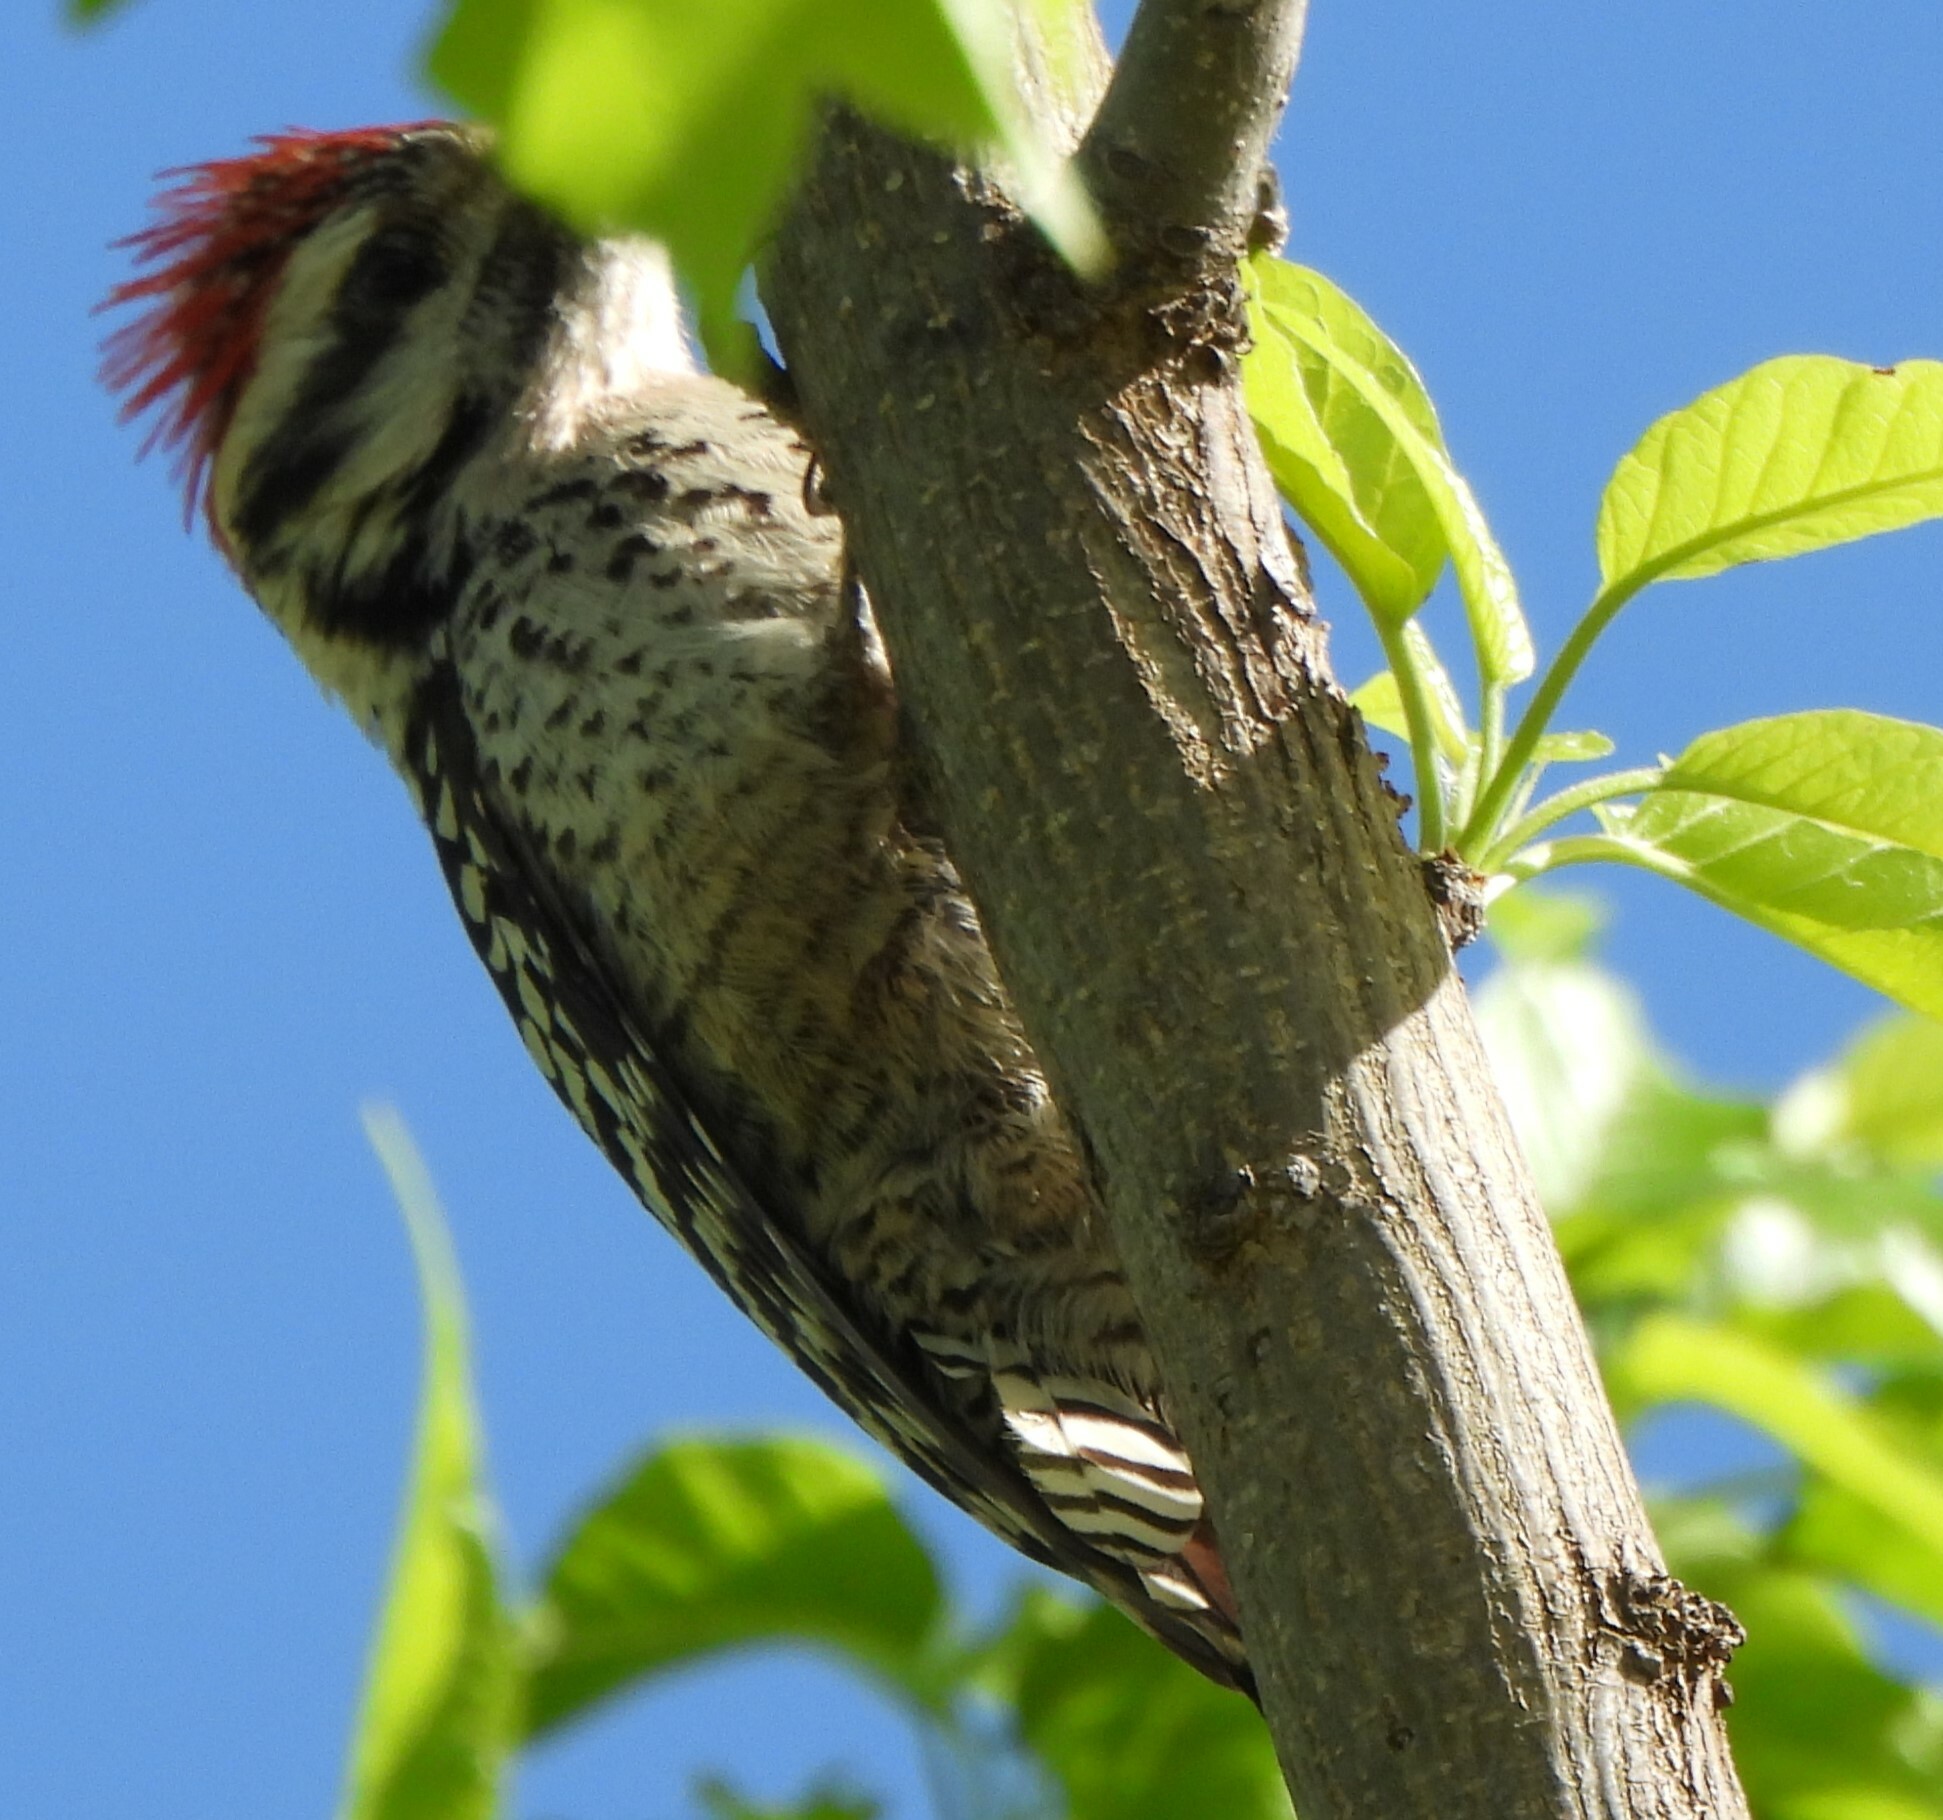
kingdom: Animalia
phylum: Chordata
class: Aves
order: Piciformes
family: Picidae
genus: Dryobates
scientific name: Dryobates scalaris
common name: Ladder-backed woodpecker
